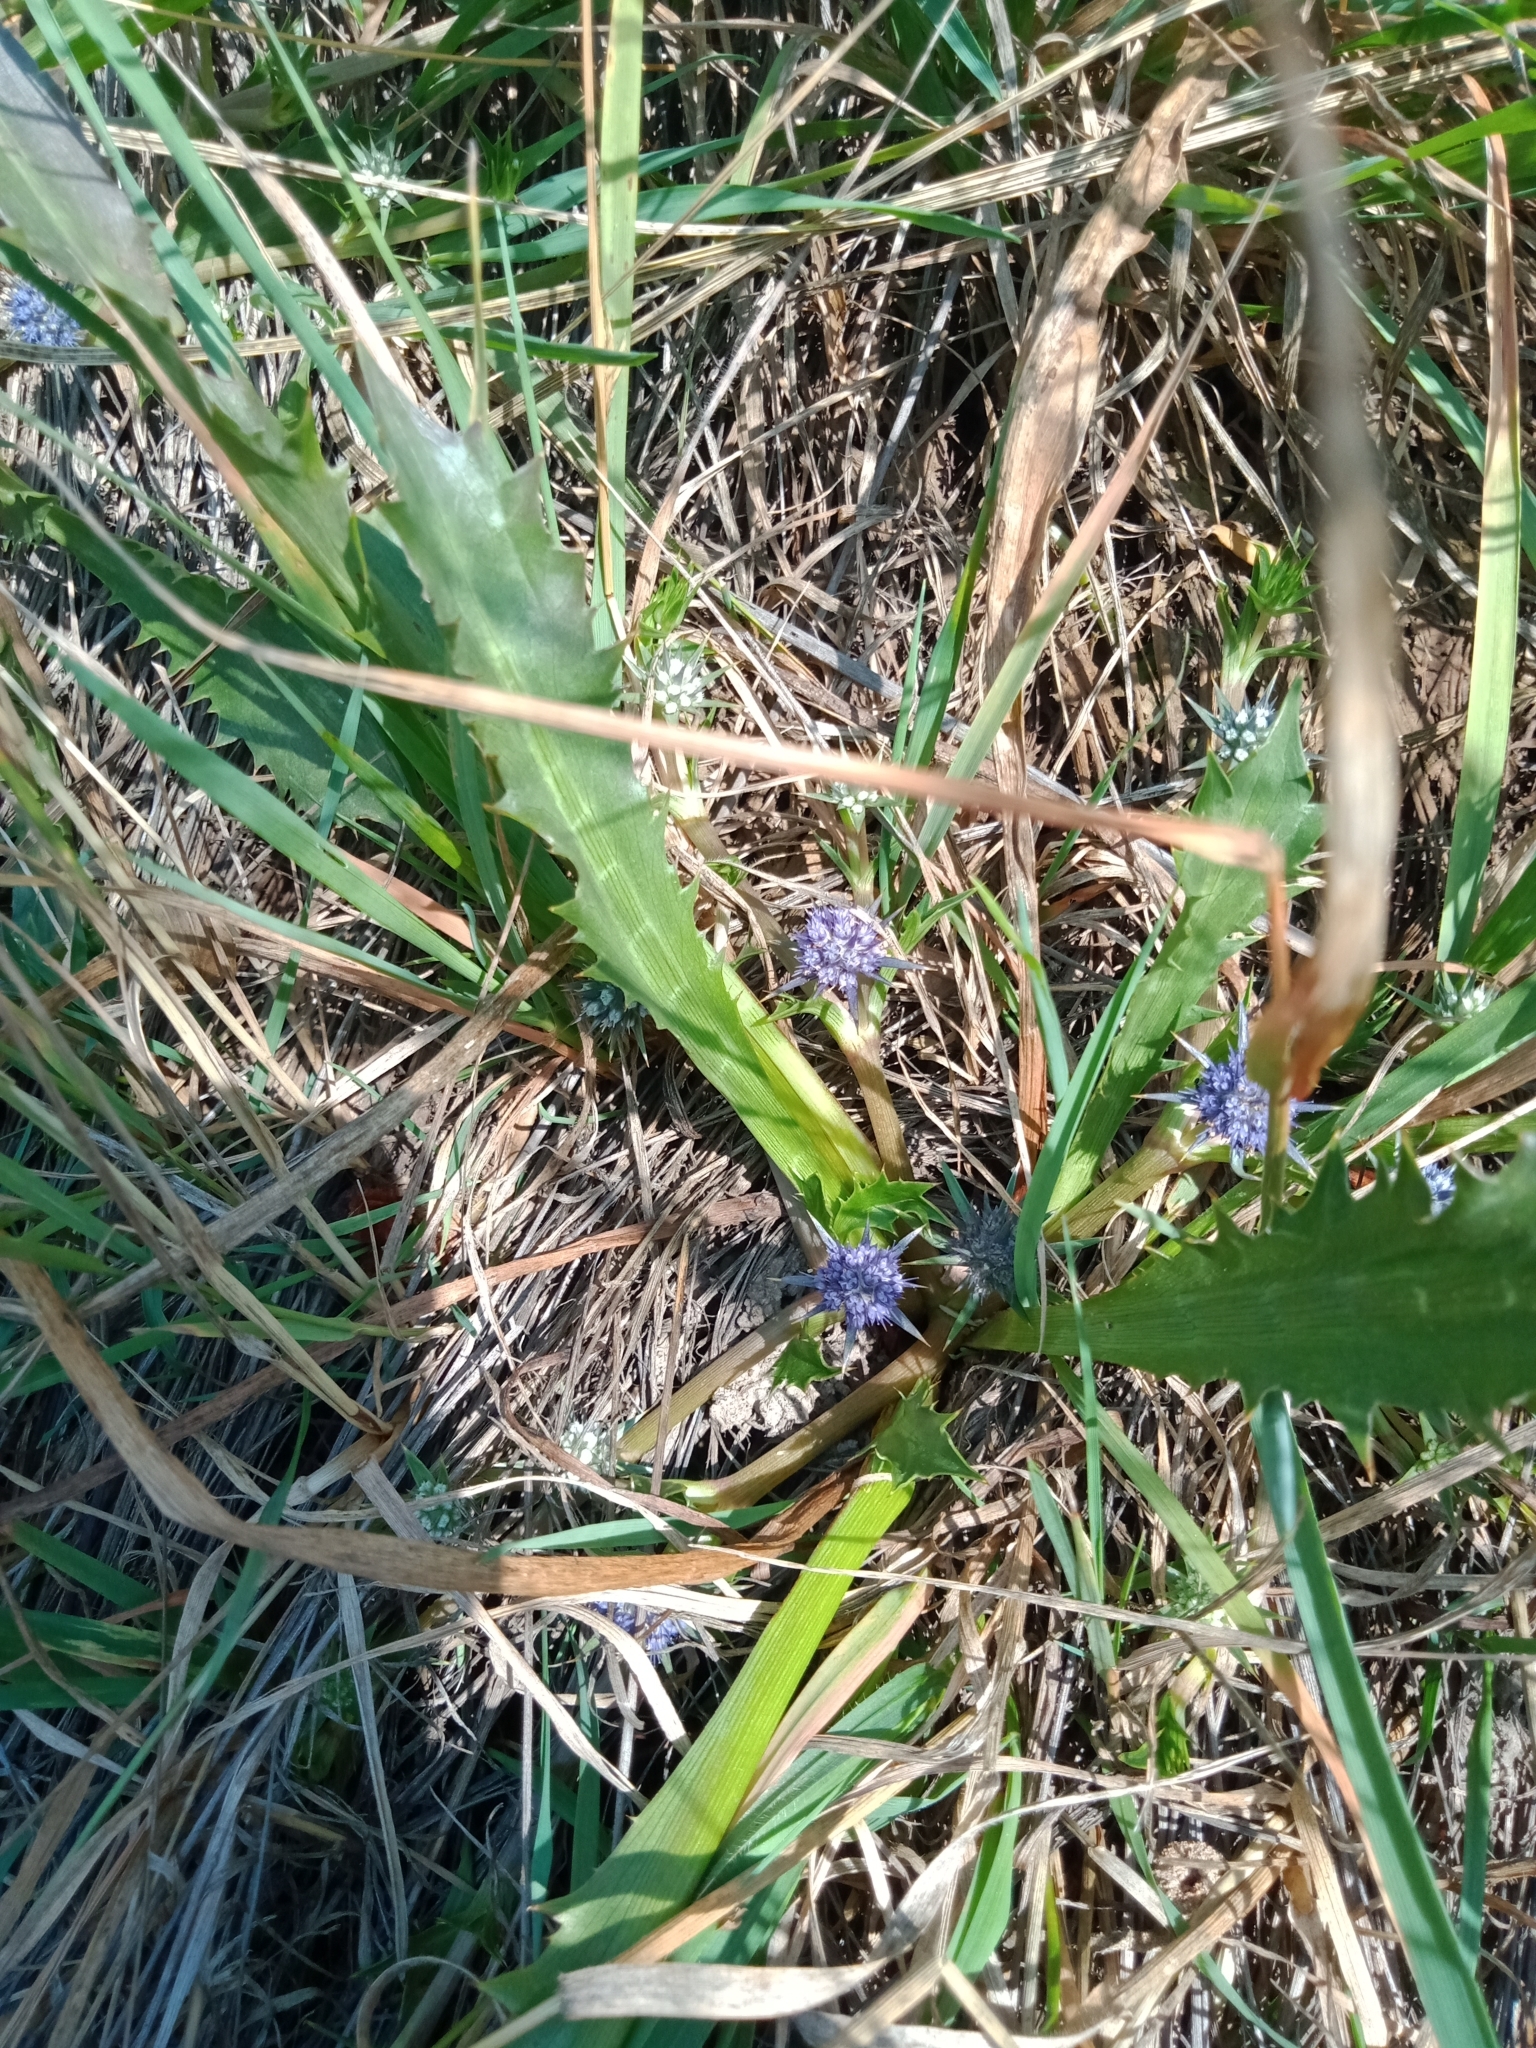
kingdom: Plantae
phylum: Tracheophyta
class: Magnoliopsida
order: Apiales
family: Apiaceae
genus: Eryngium
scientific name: Eryngium vesiculosum
